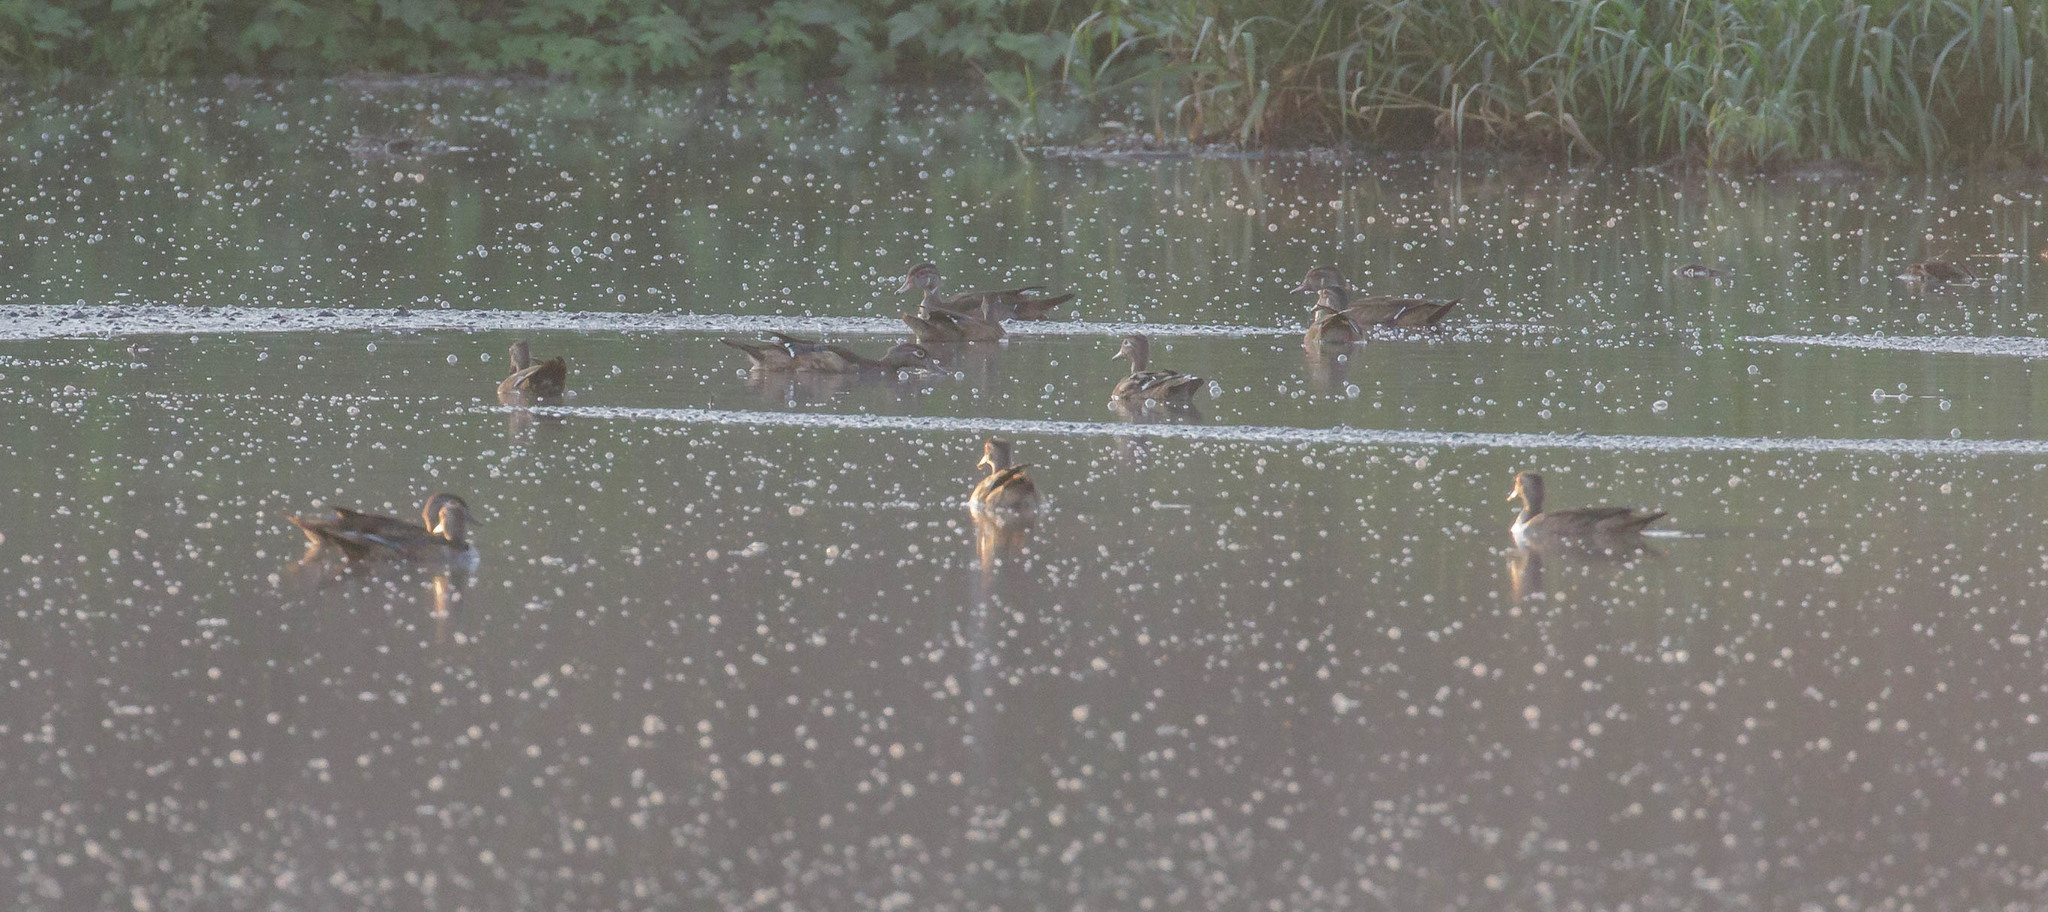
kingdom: Animalia
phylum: Chordata
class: Aves
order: Anseriformes
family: Anatidae
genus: Aix
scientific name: Aix sponsa
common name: Wood duck
